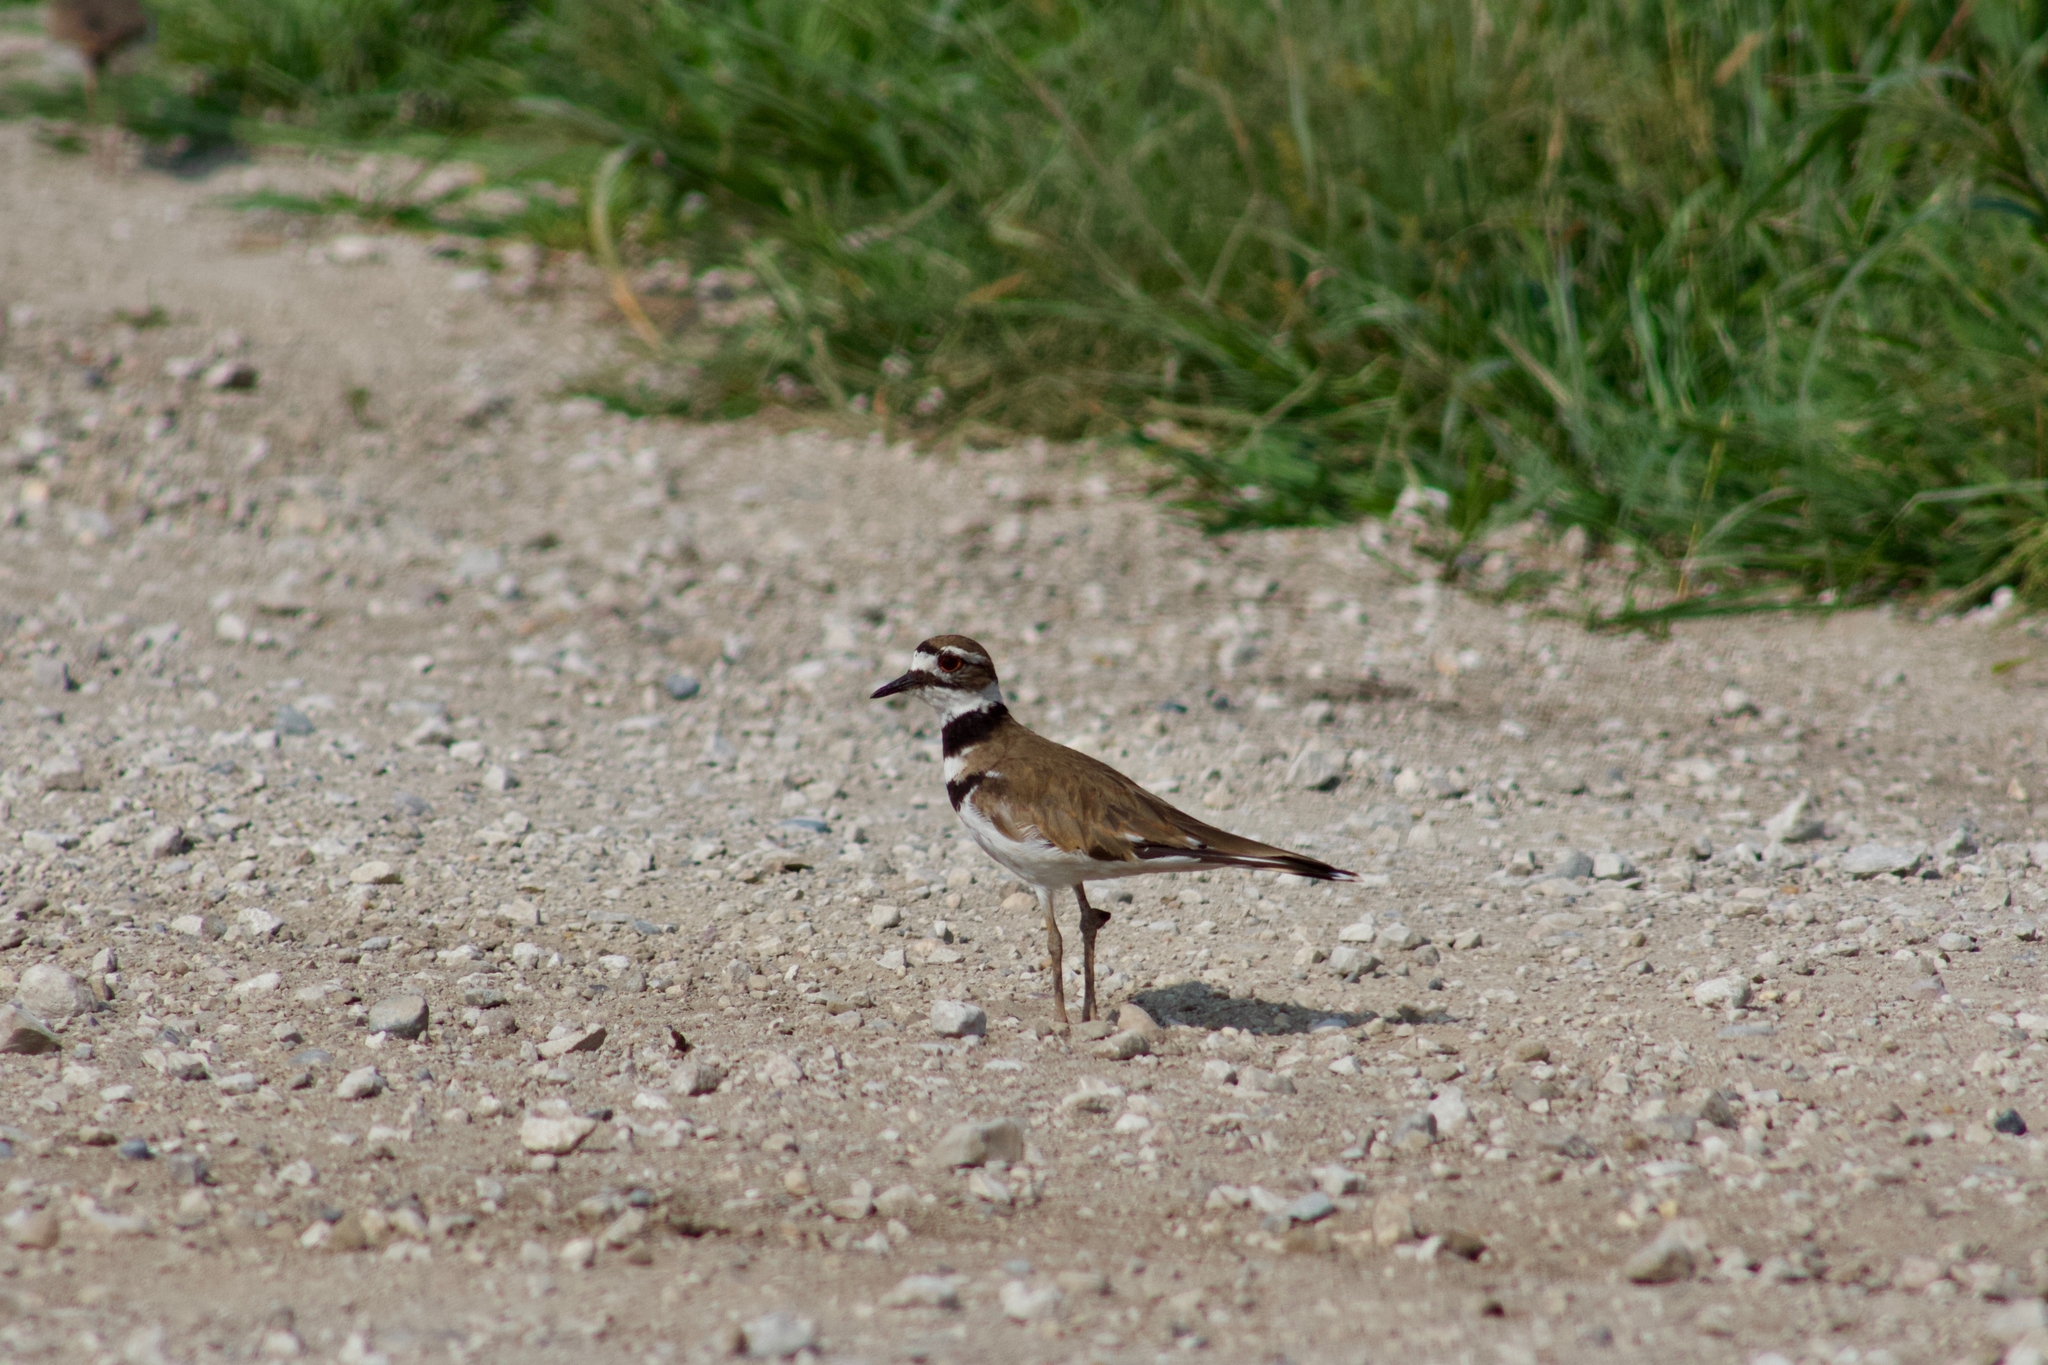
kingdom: Animalia
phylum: Chordata
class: Aves
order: Charadriiformes
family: Charadriidae
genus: Charadrius
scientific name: Charadrius vociferus
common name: Killdeer
